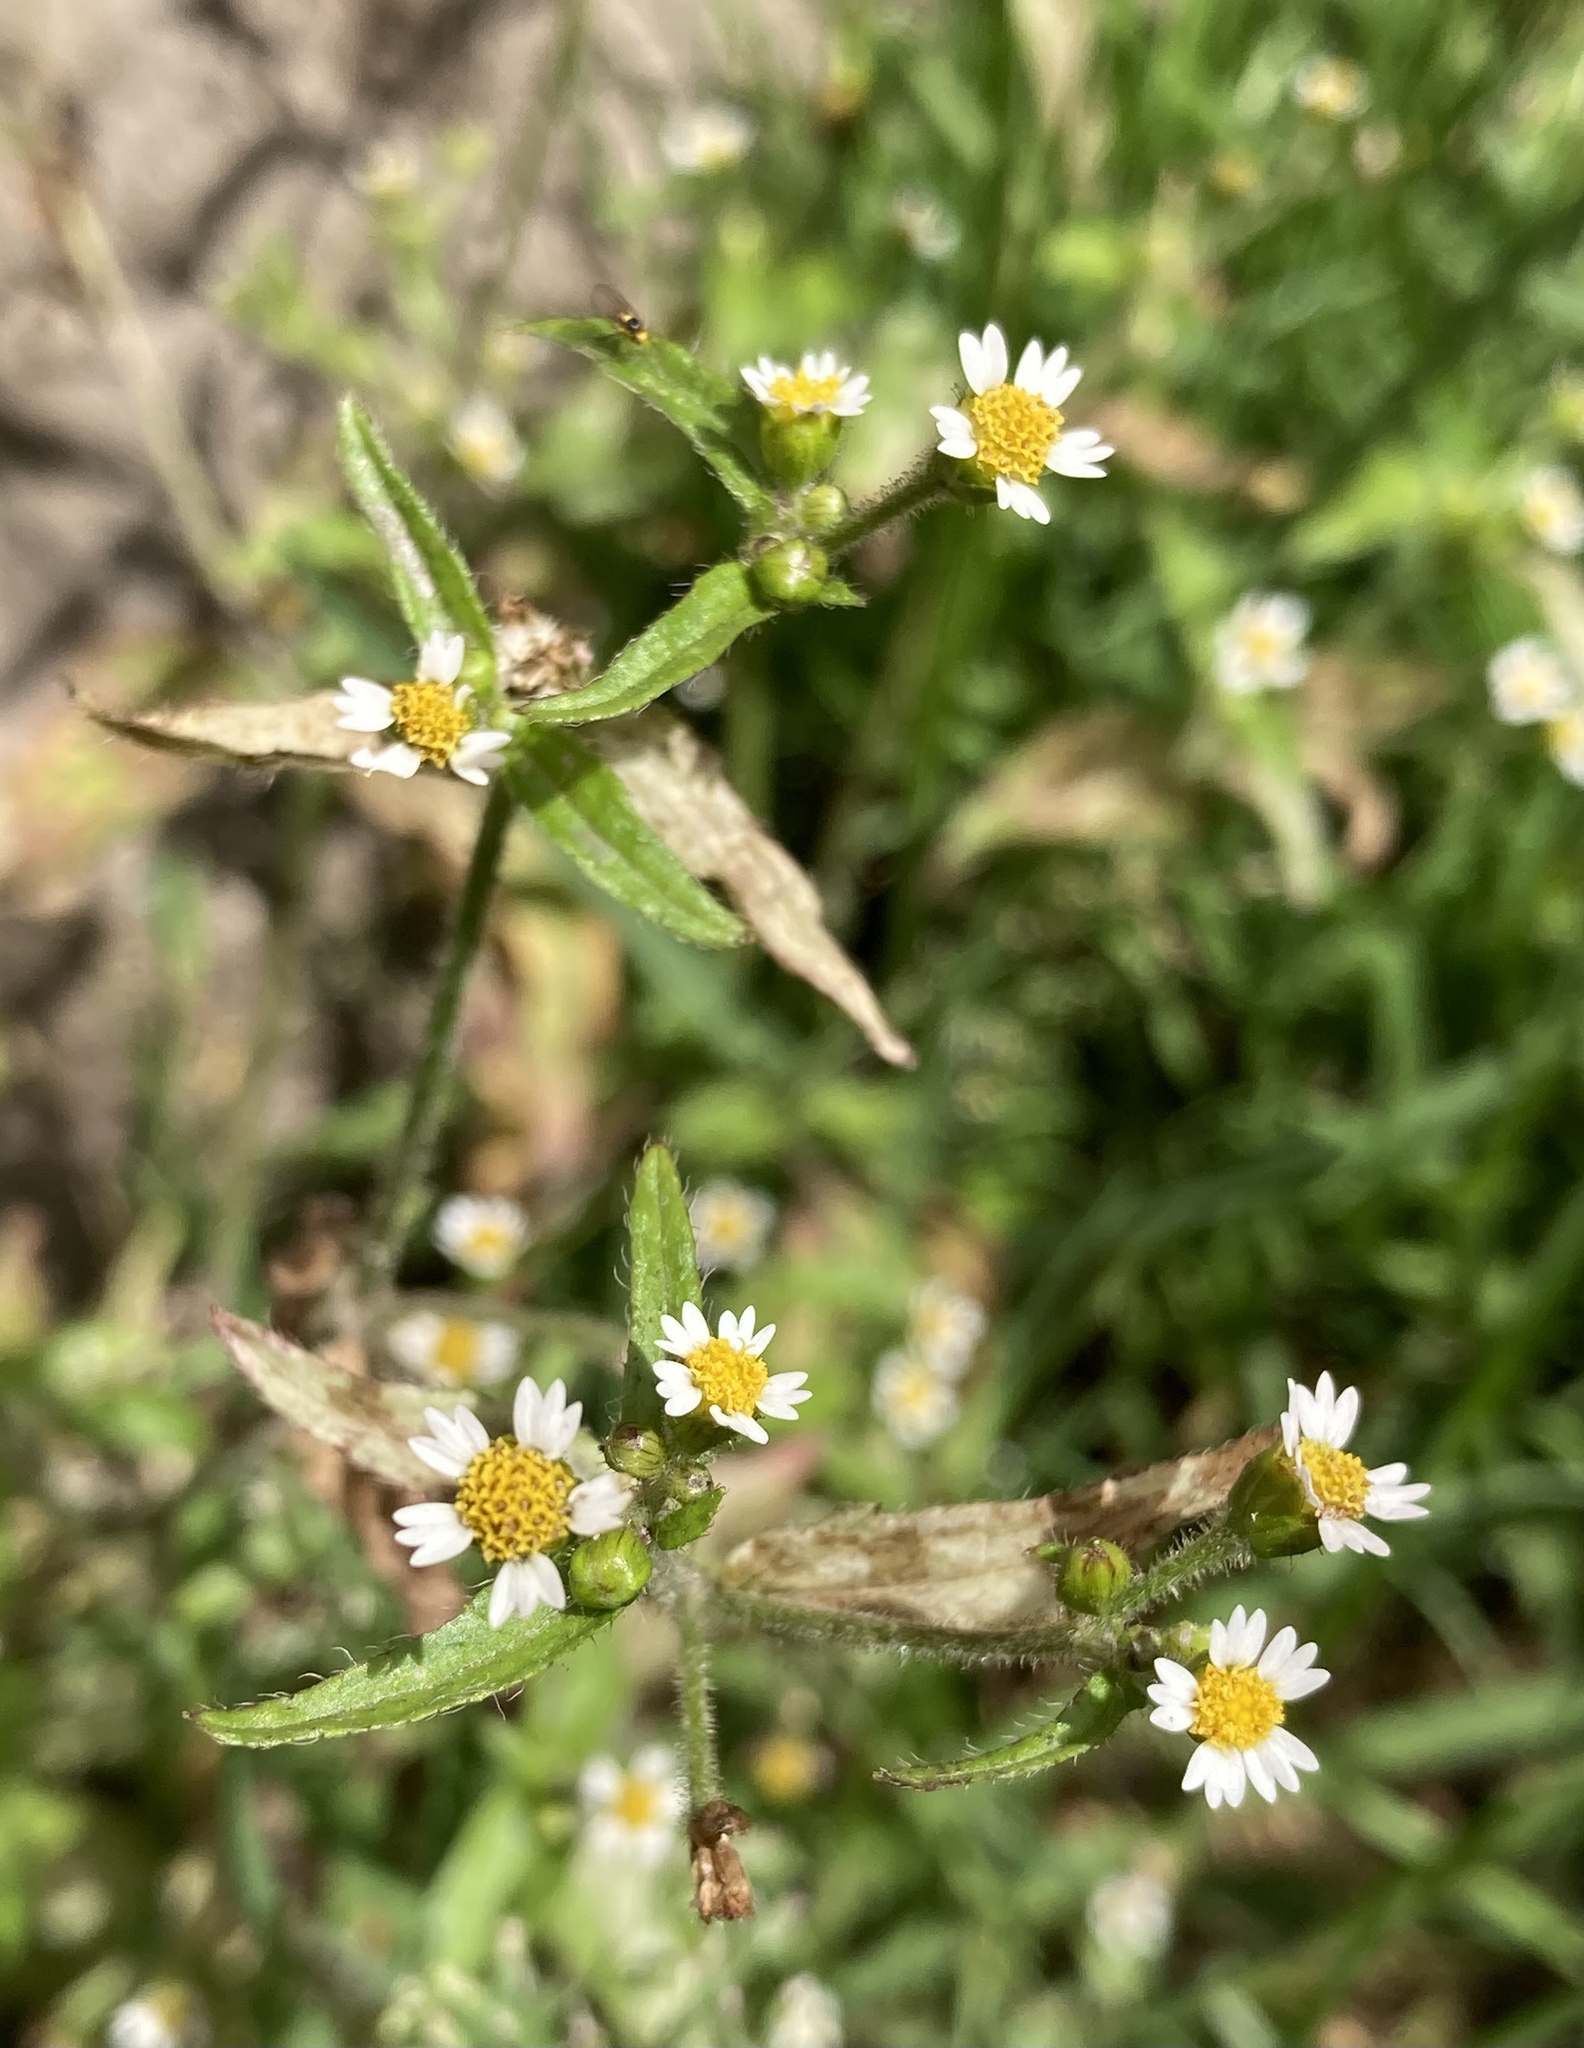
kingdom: Plantae
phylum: Tracheophyta
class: Magnoliopsida
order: Asterales
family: Asteraceae
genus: Galinsoga
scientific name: Galinsoga quadriradiata
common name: Shaggy soldier
